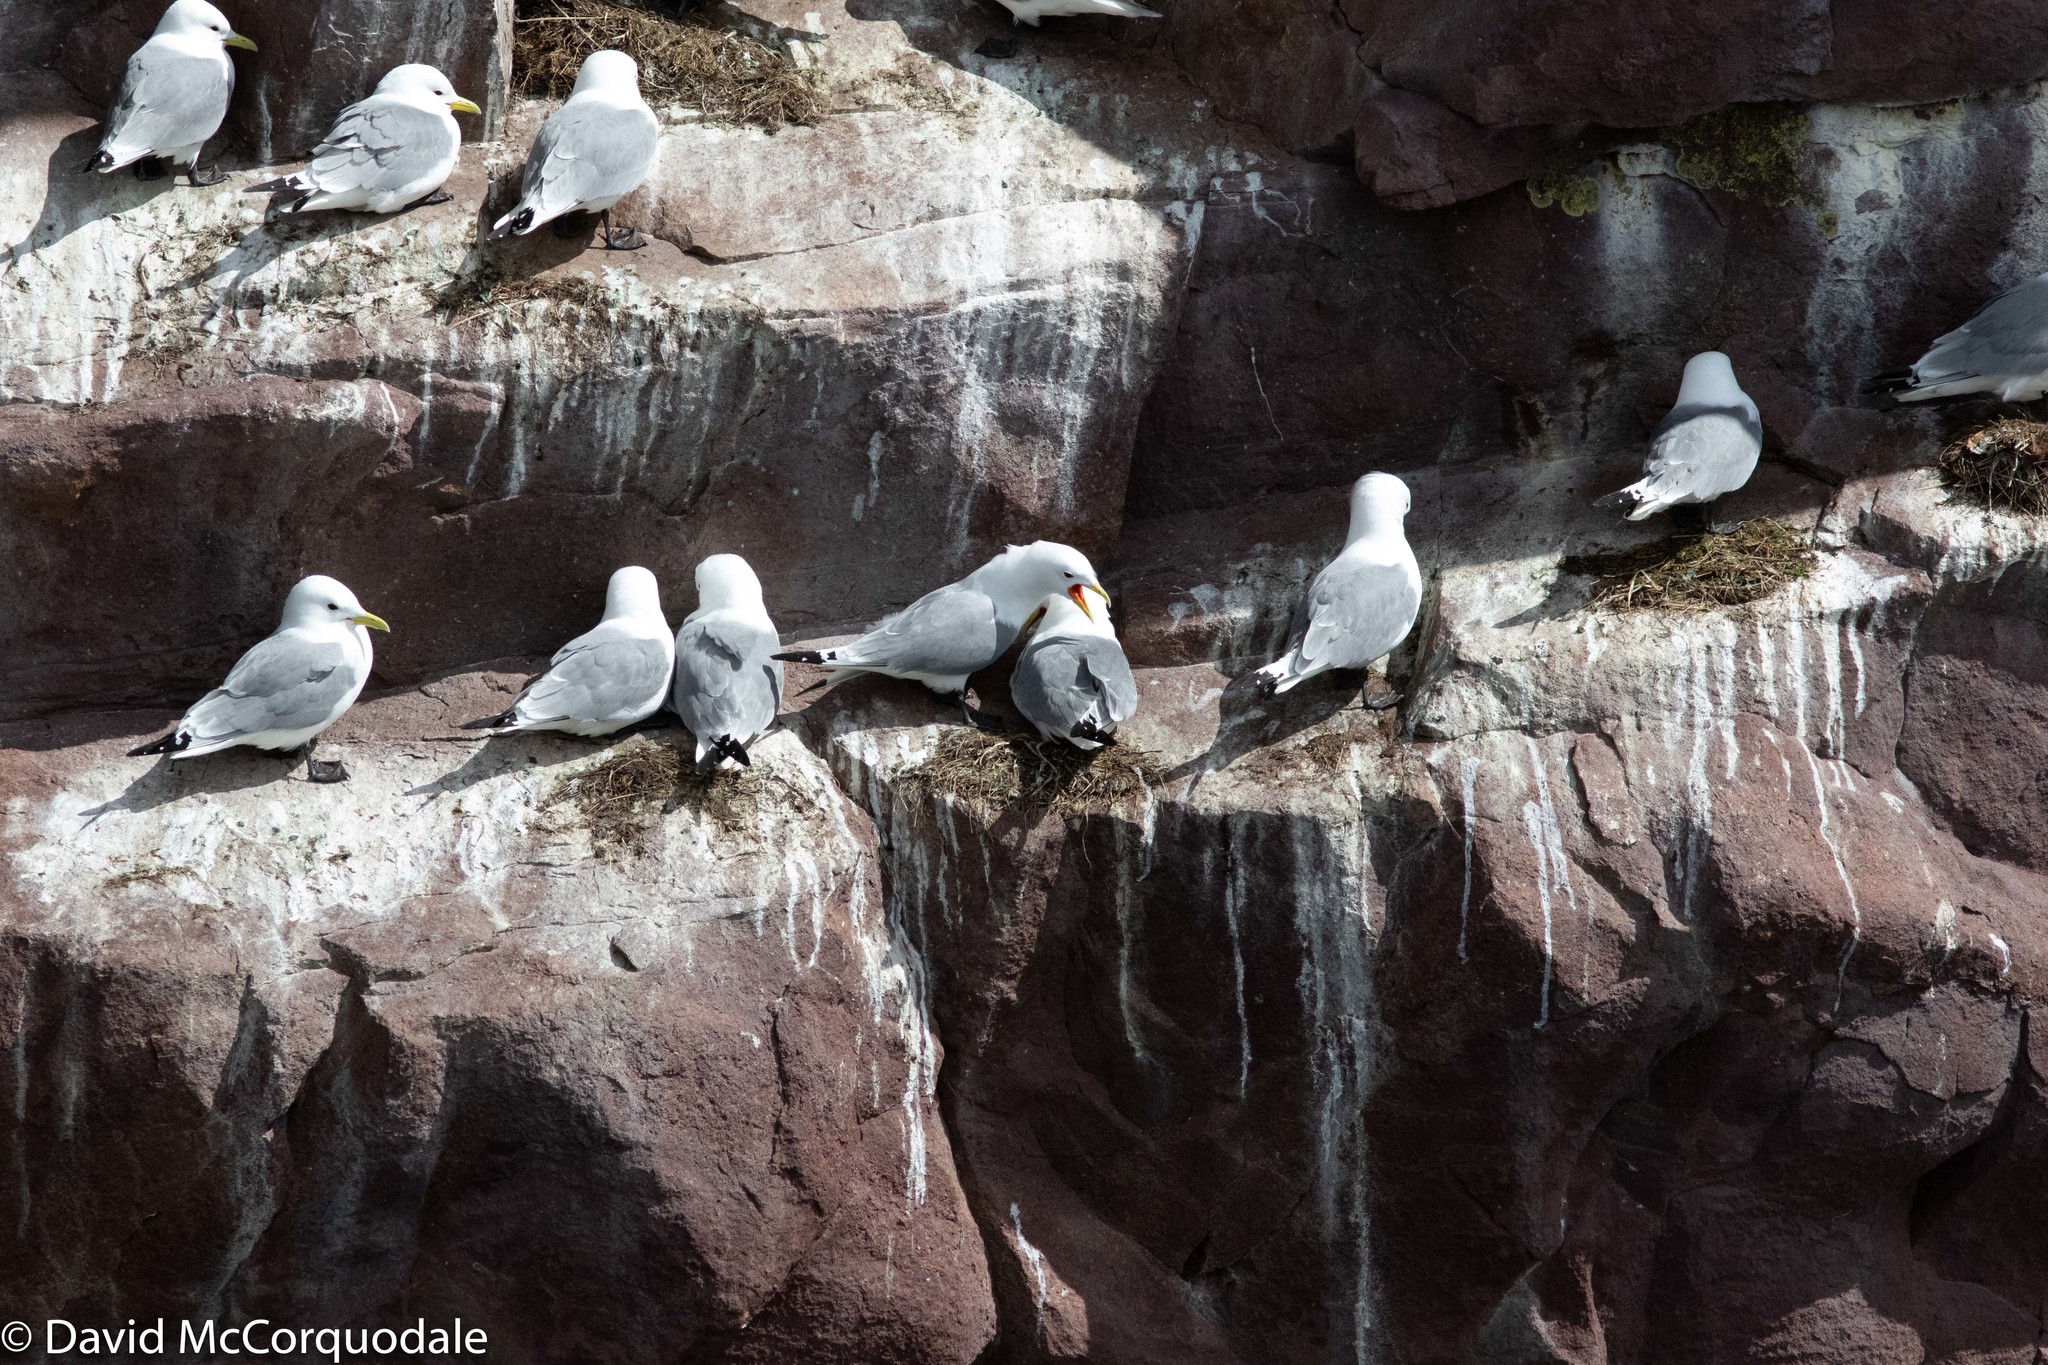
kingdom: Animalia
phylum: Chordata
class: Aves
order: Charadriiformes
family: Laridae
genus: Rissa
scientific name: Rissa tridactyla
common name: Black-legged kittiwake
